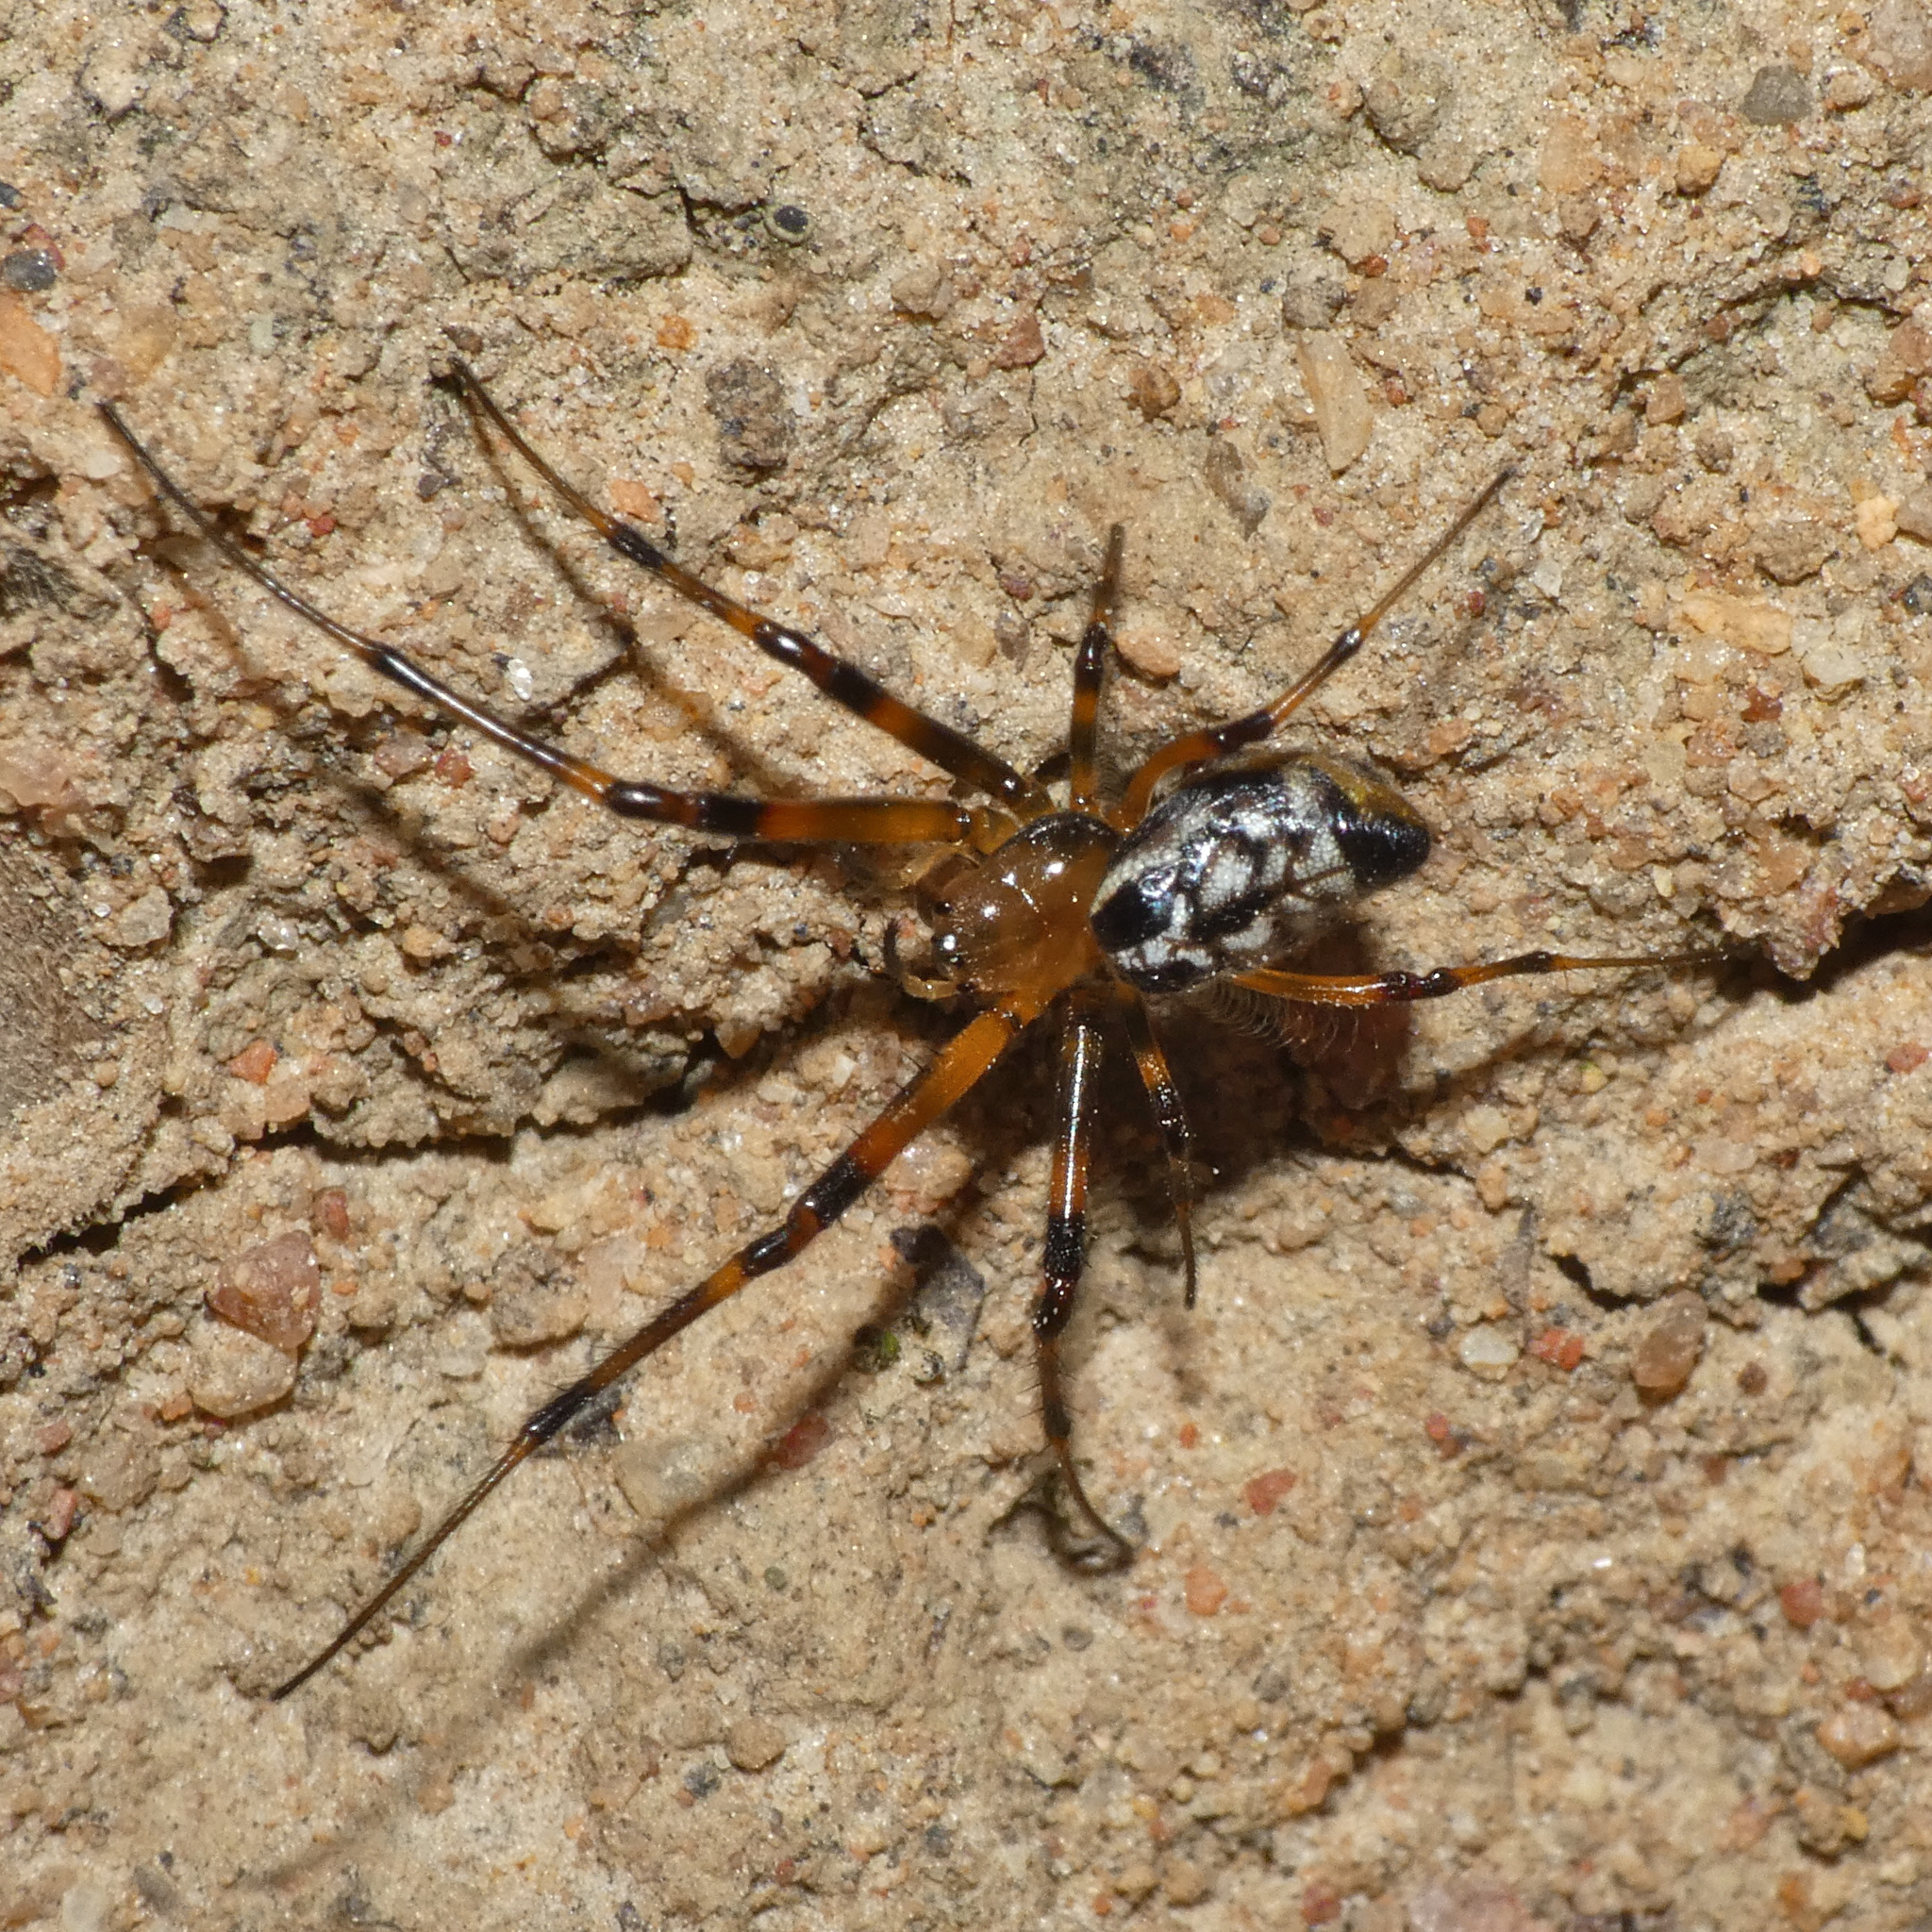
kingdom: Animalia
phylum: Arthropoda
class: Arachnida
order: Araneae
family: Tetragnathidae
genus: Leucauge
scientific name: Leucauge medjensis
